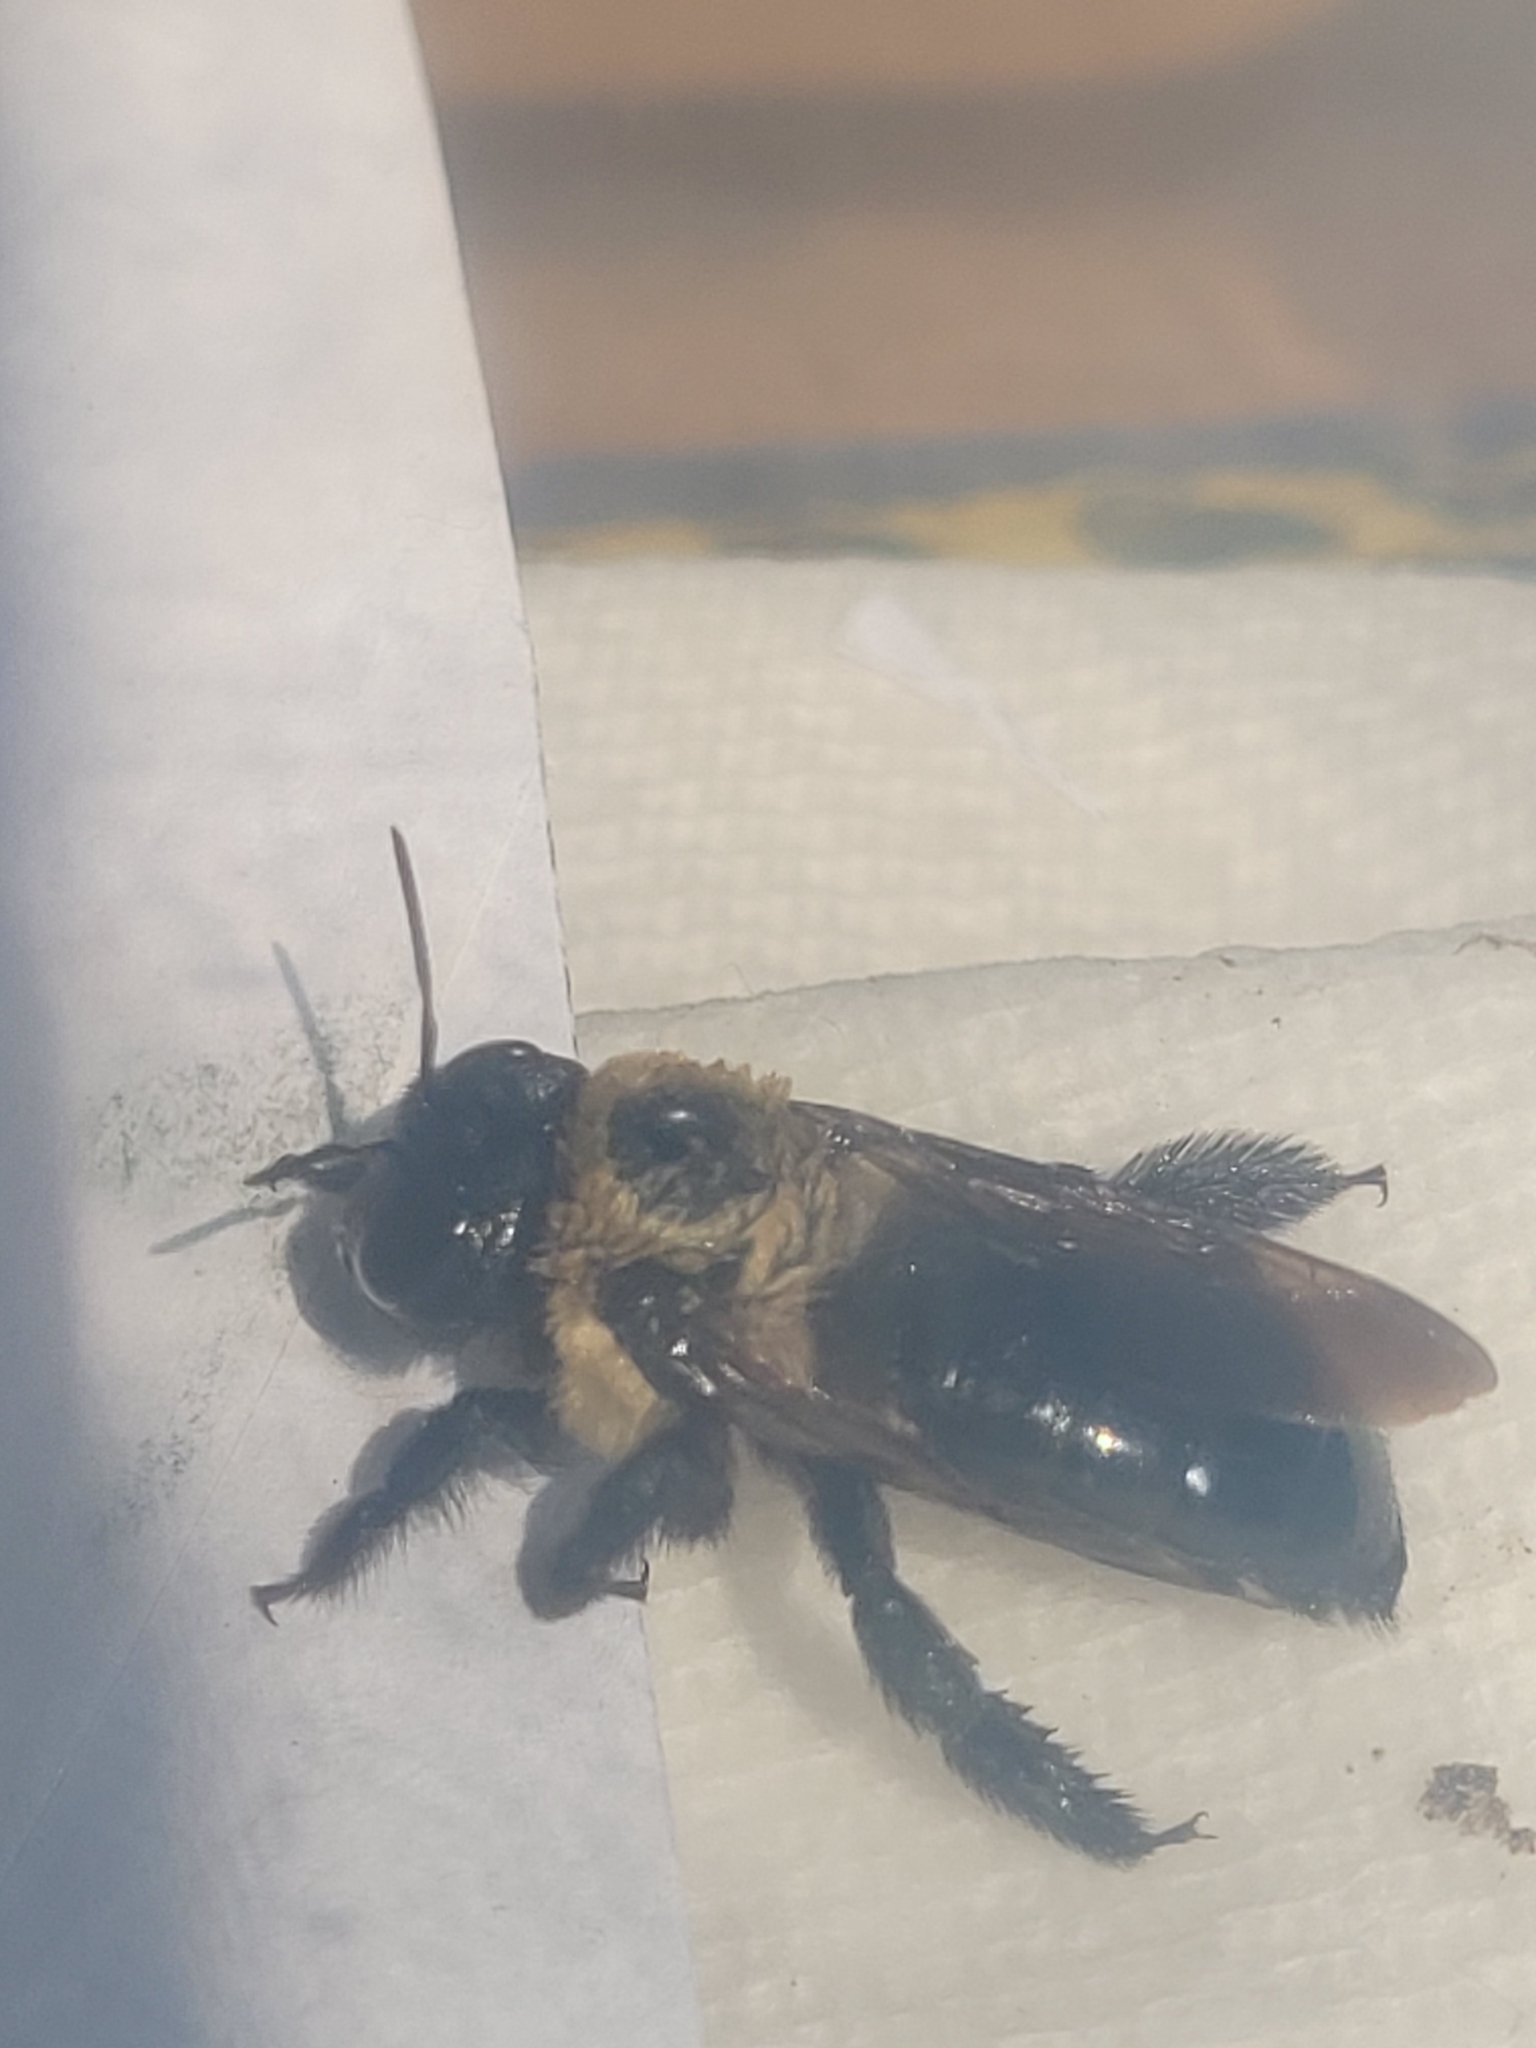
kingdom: Animalia
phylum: Arthropoda
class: Insecta
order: Hymenoptera
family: Apidae
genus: Xylocopa
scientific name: Xylocopa virginica
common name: Carpenter bee
